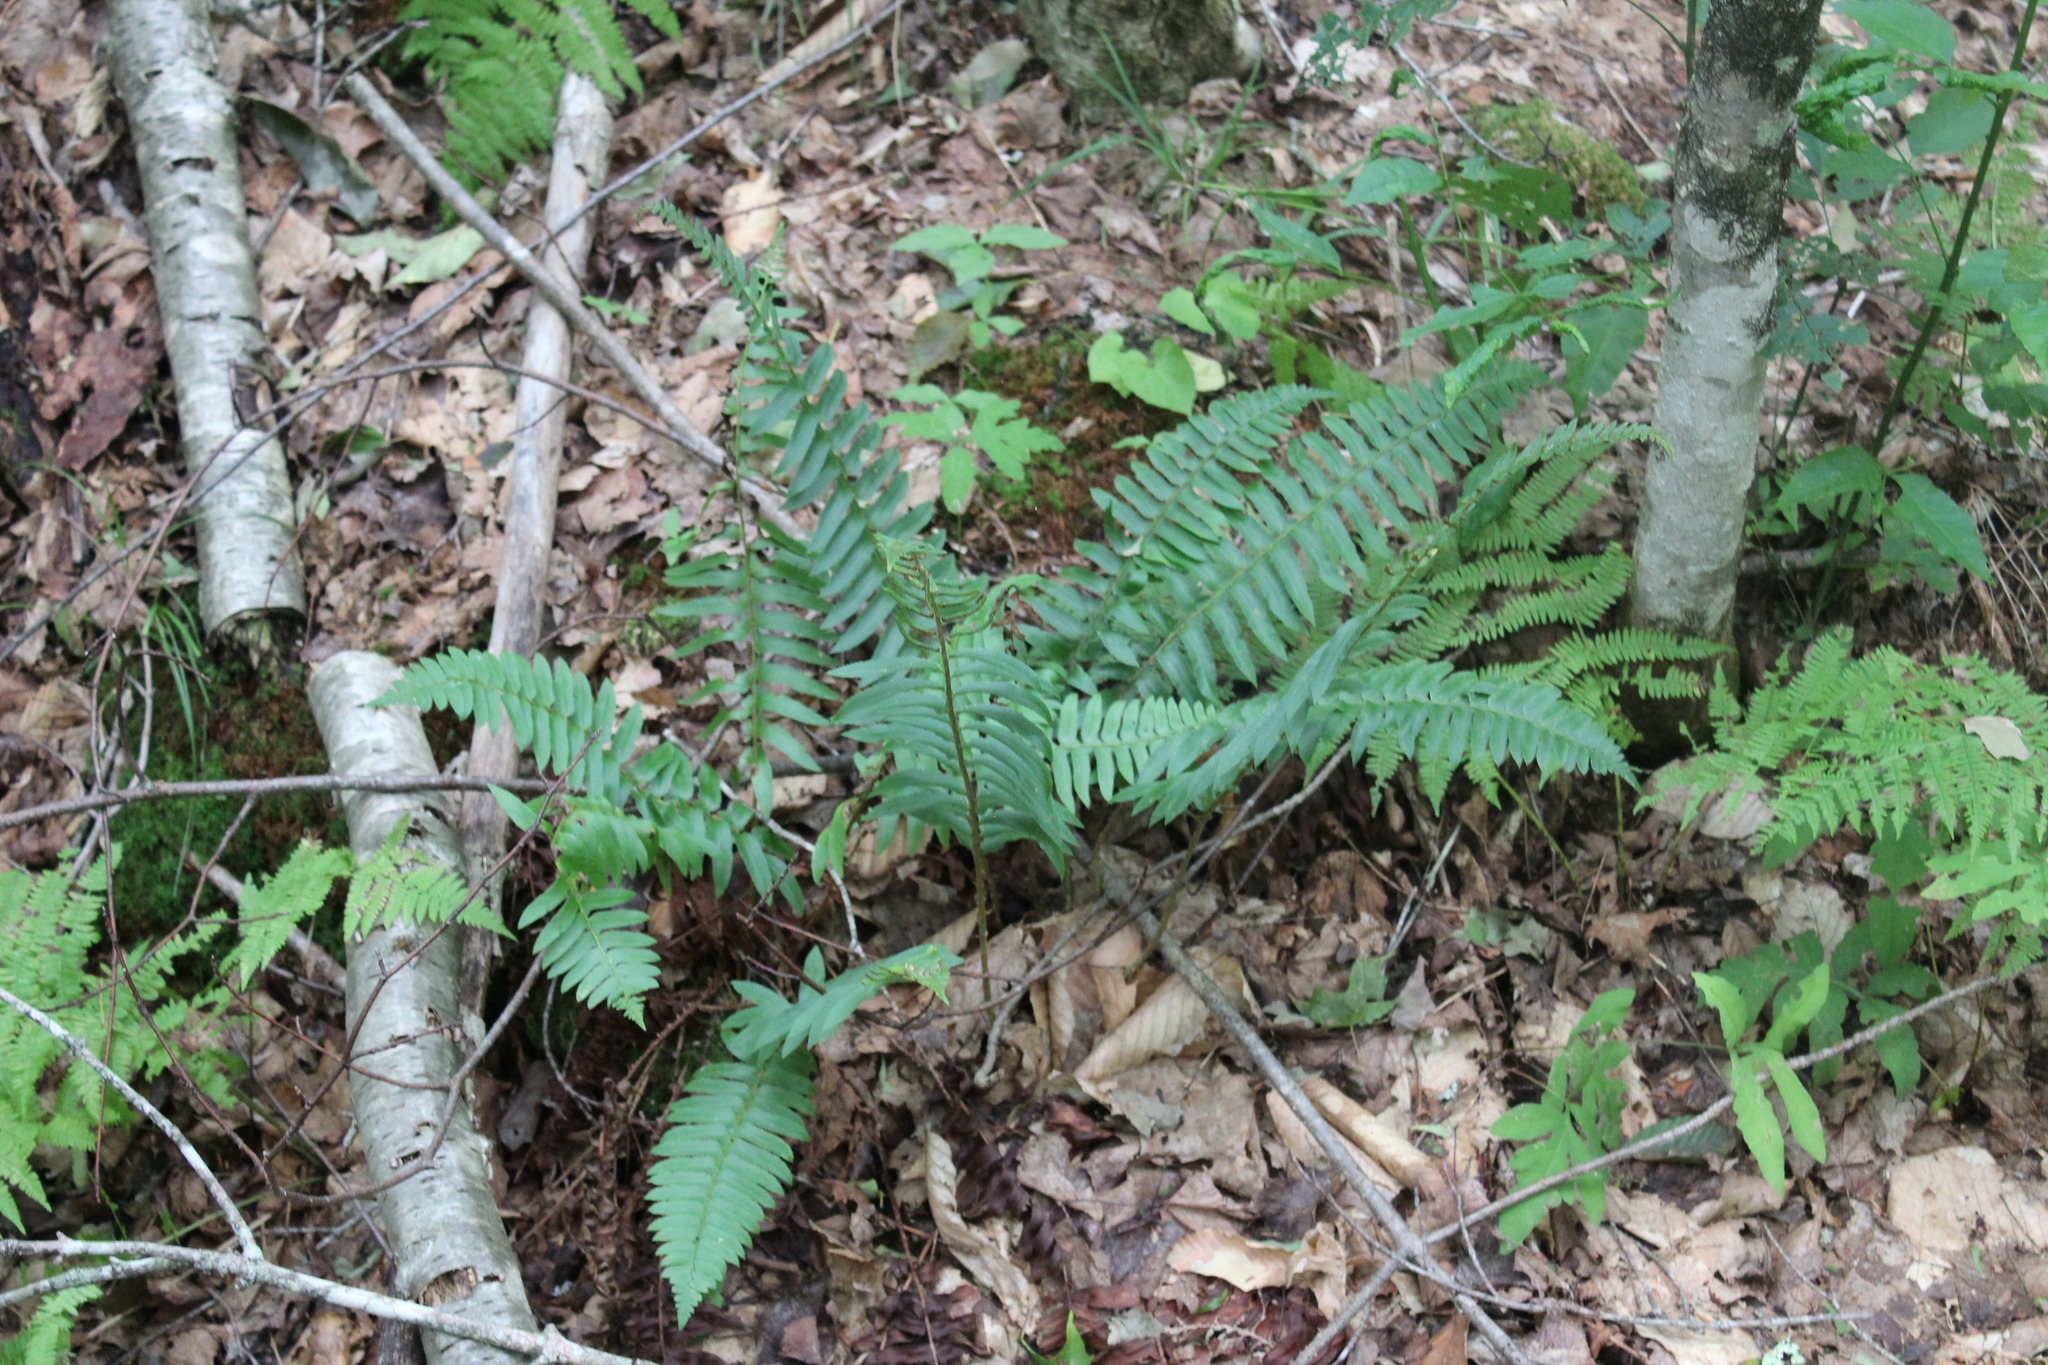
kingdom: Plantae
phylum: Tracheophyta
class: Polypodiopsida
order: Polypodiales
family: Dryopteridaceae
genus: Polystichum
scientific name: Polystichum acrostichoides
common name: Christmas fern
